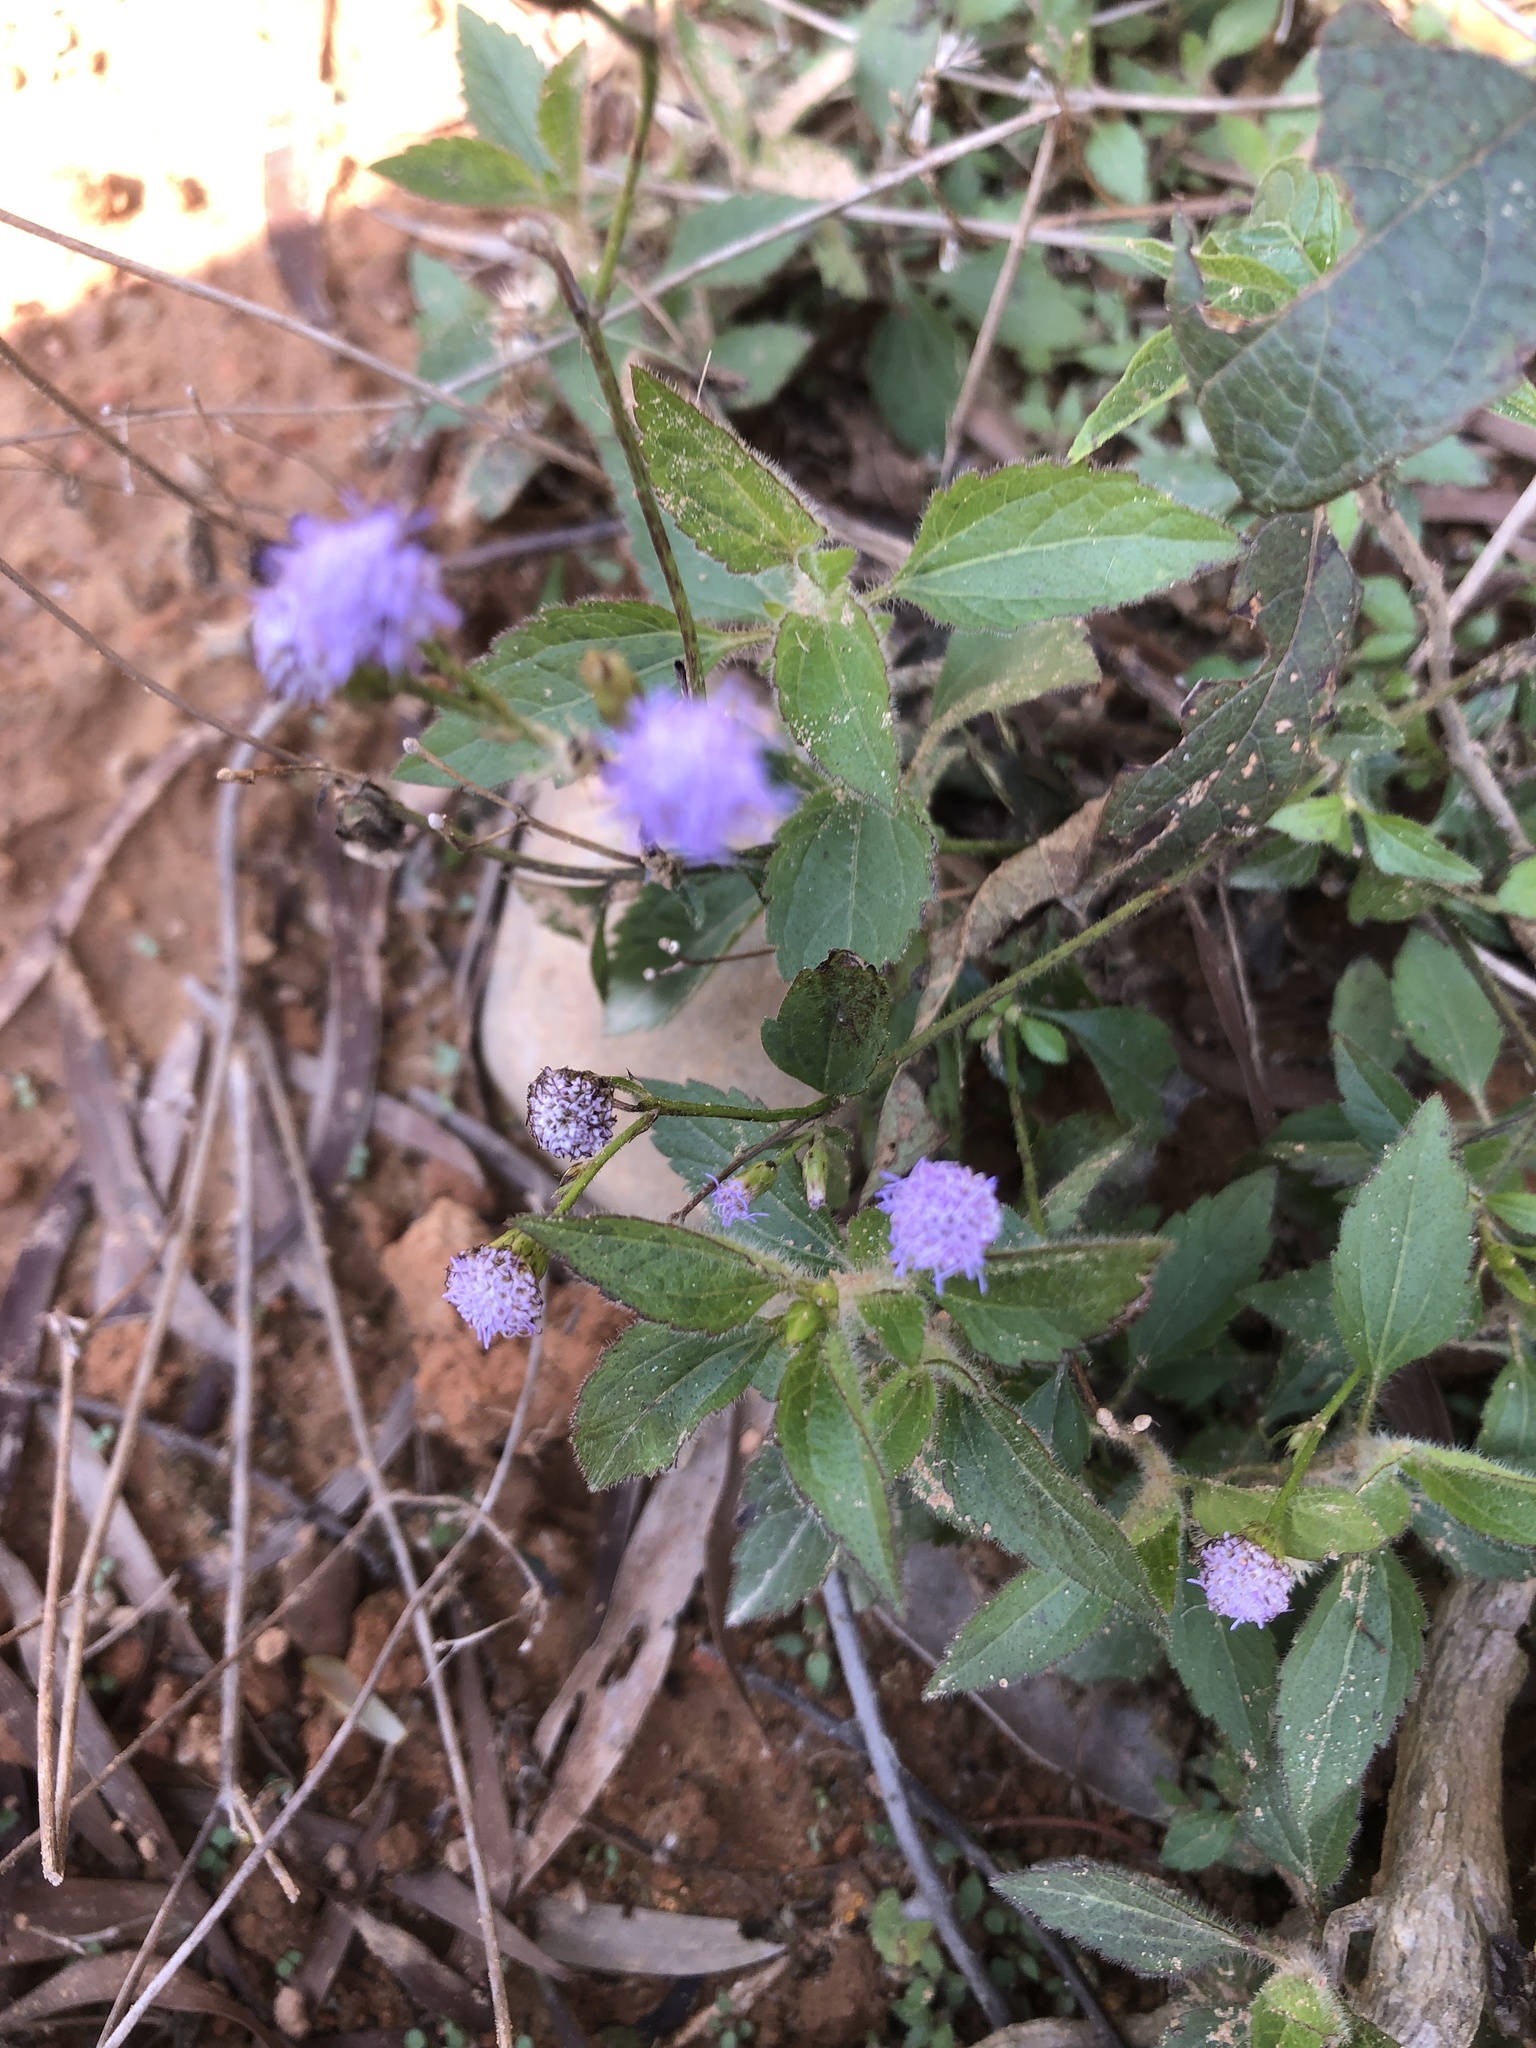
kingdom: Plantae
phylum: Tracheophyta
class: Magnoliopsida
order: Asterales
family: Asteraceae
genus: Praxelis
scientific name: Praxelis clematidea
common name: Praxelis
